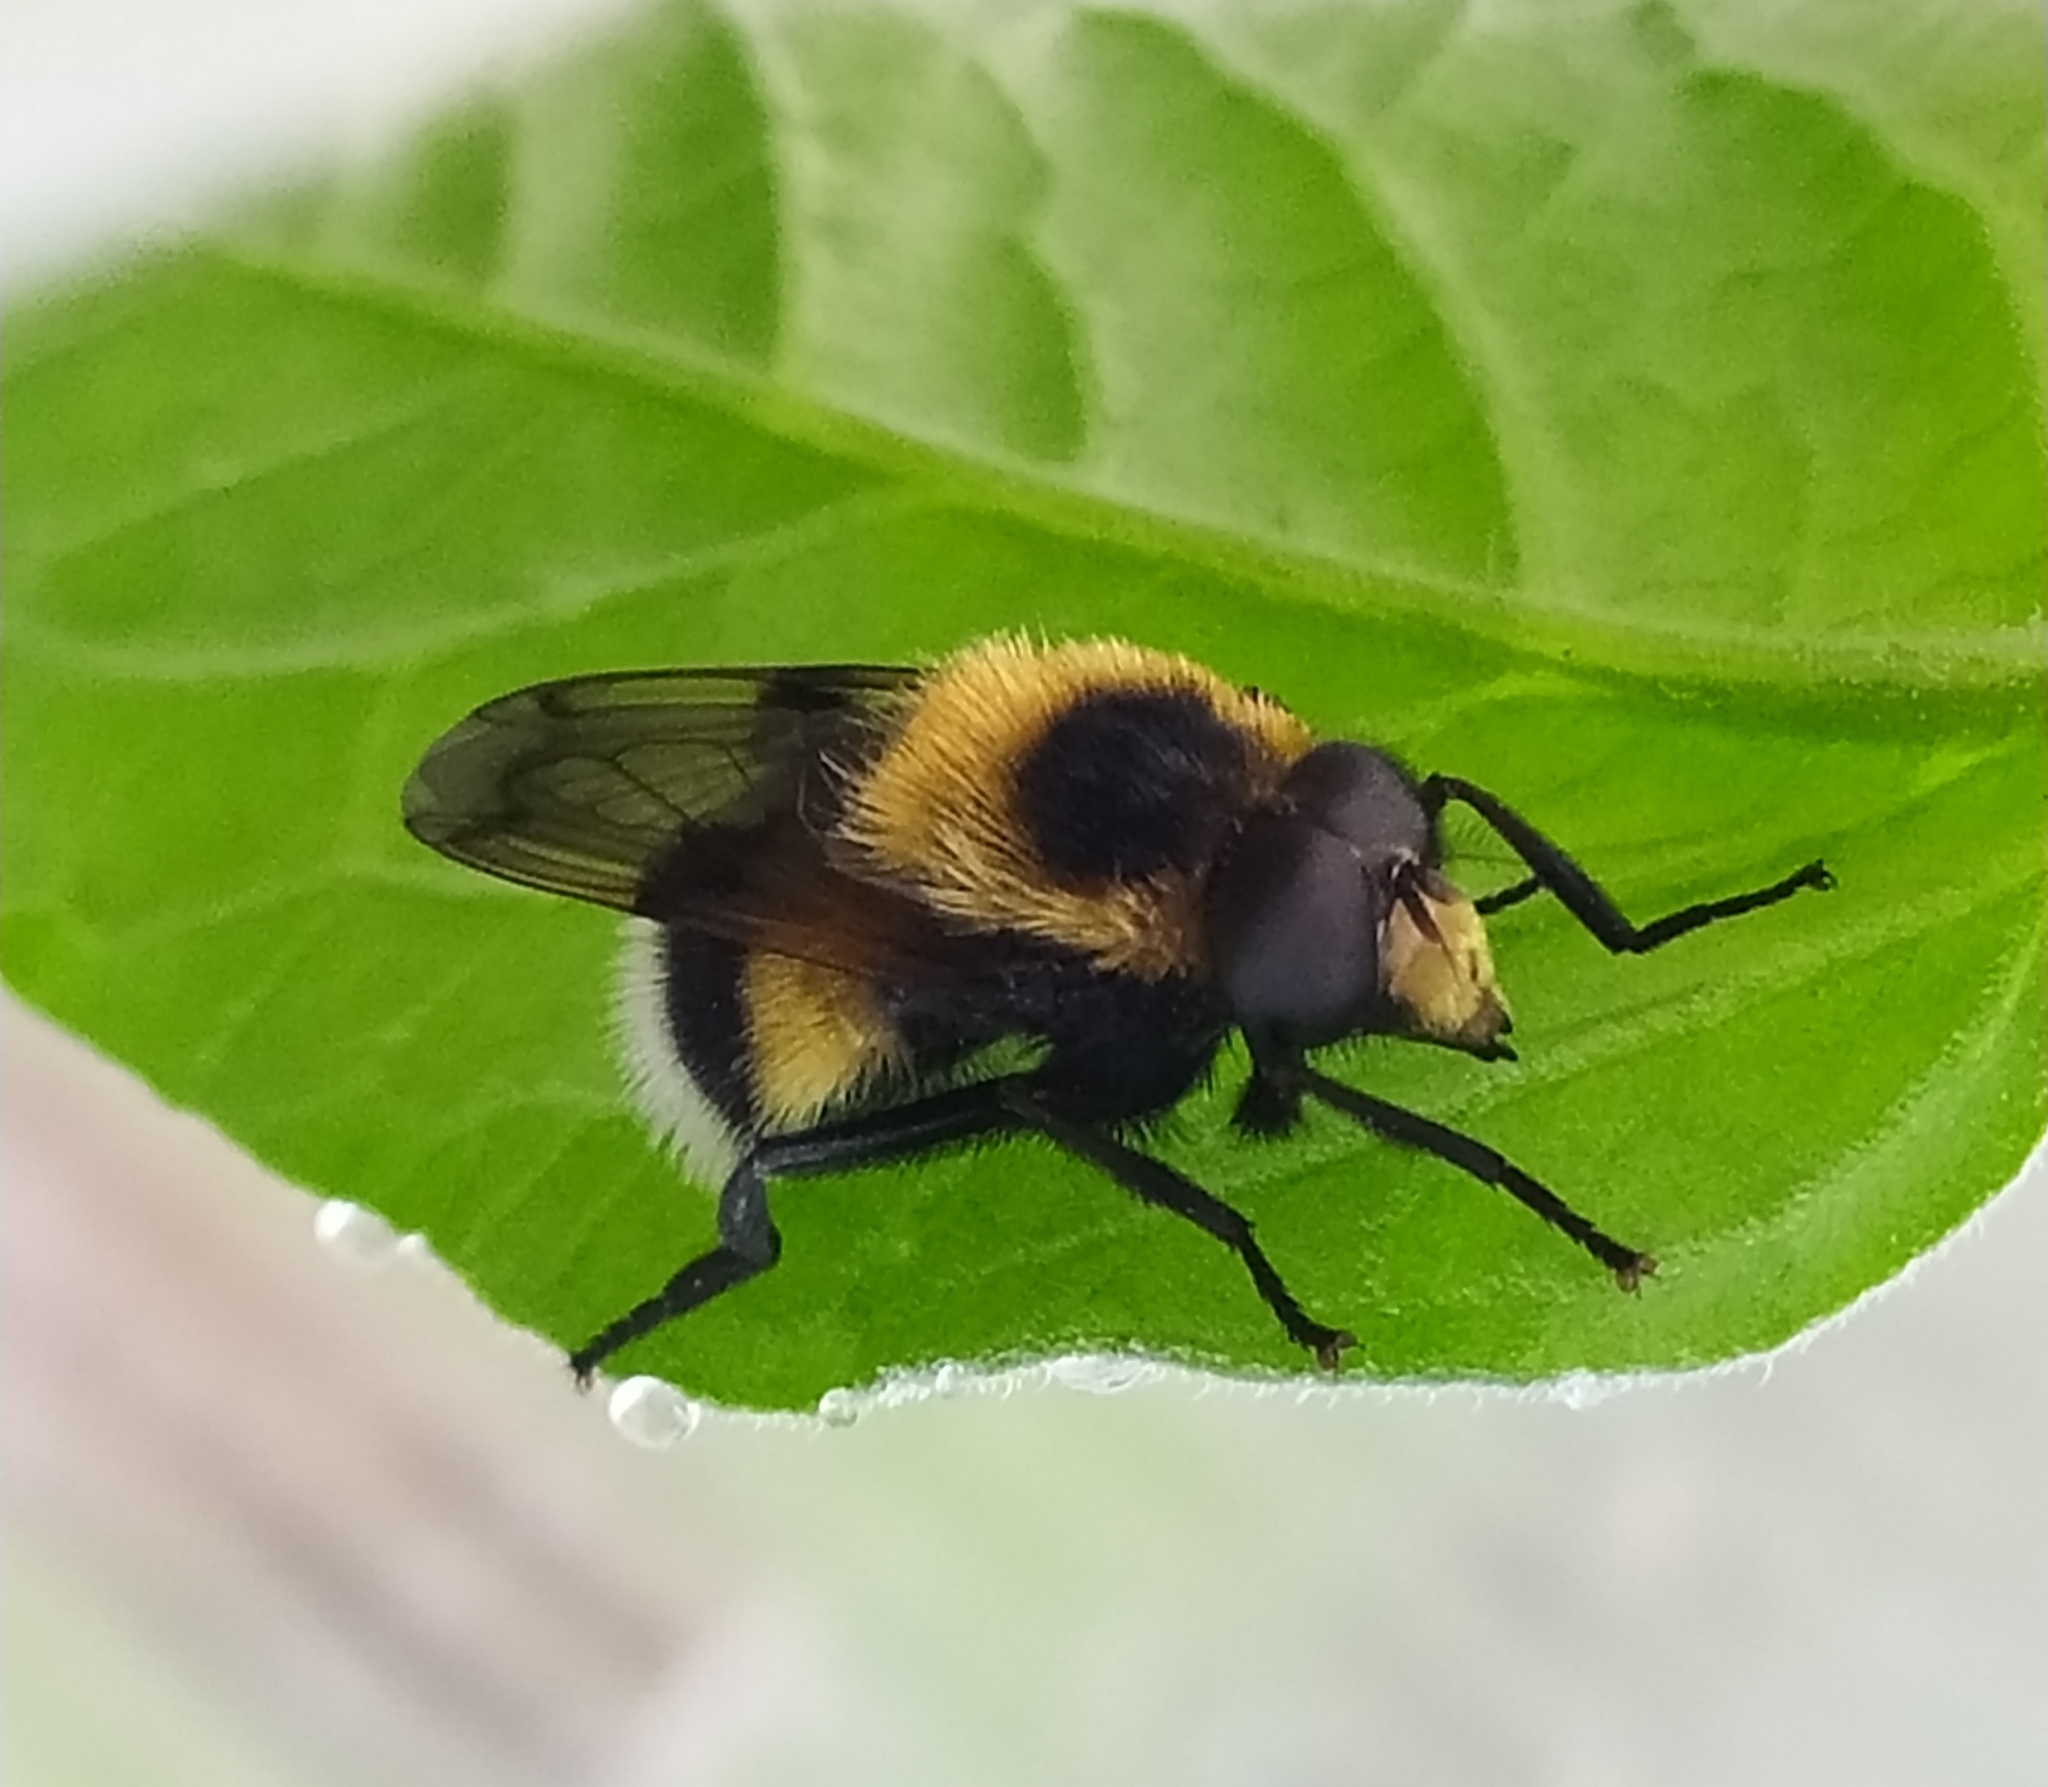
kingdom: Animalia
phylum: Arthropoda
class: Insecta
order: Diptera
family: Syrphidae
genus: Volucella
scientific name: Volucella bombylans
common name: Bumble bee hover fly
